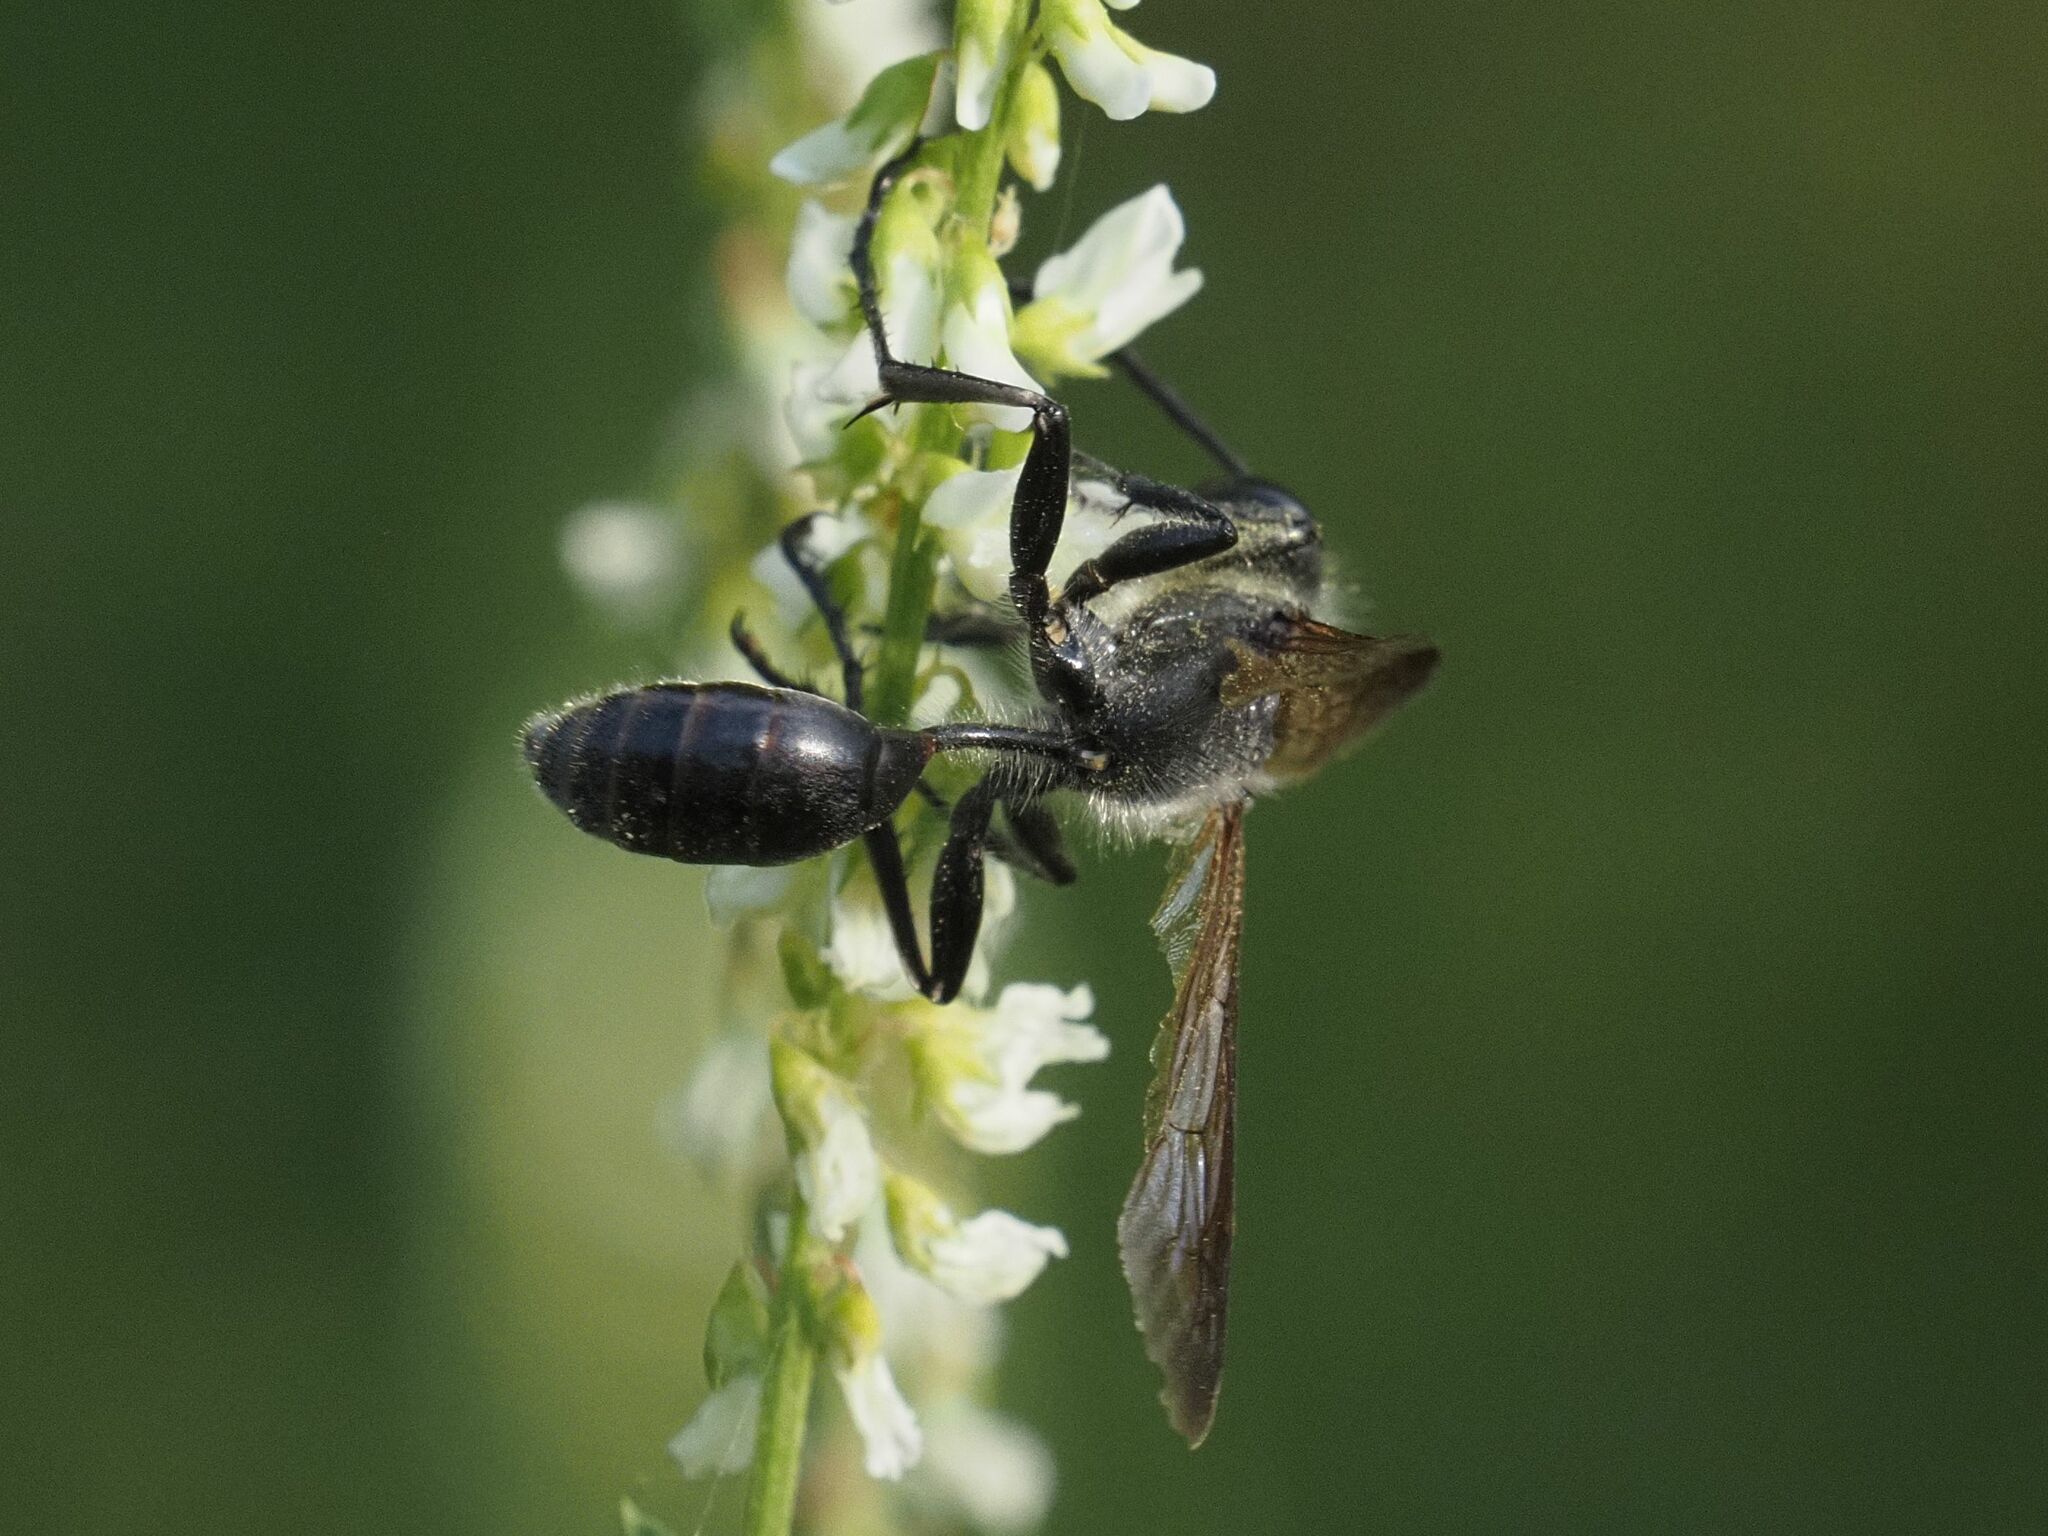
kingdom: Animalia
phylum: Arthropoda
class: Insecta
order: Hymenoptera
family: Sphecidae
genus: Isodontia
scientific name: Isodontia mexicana
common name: Mud dauber
